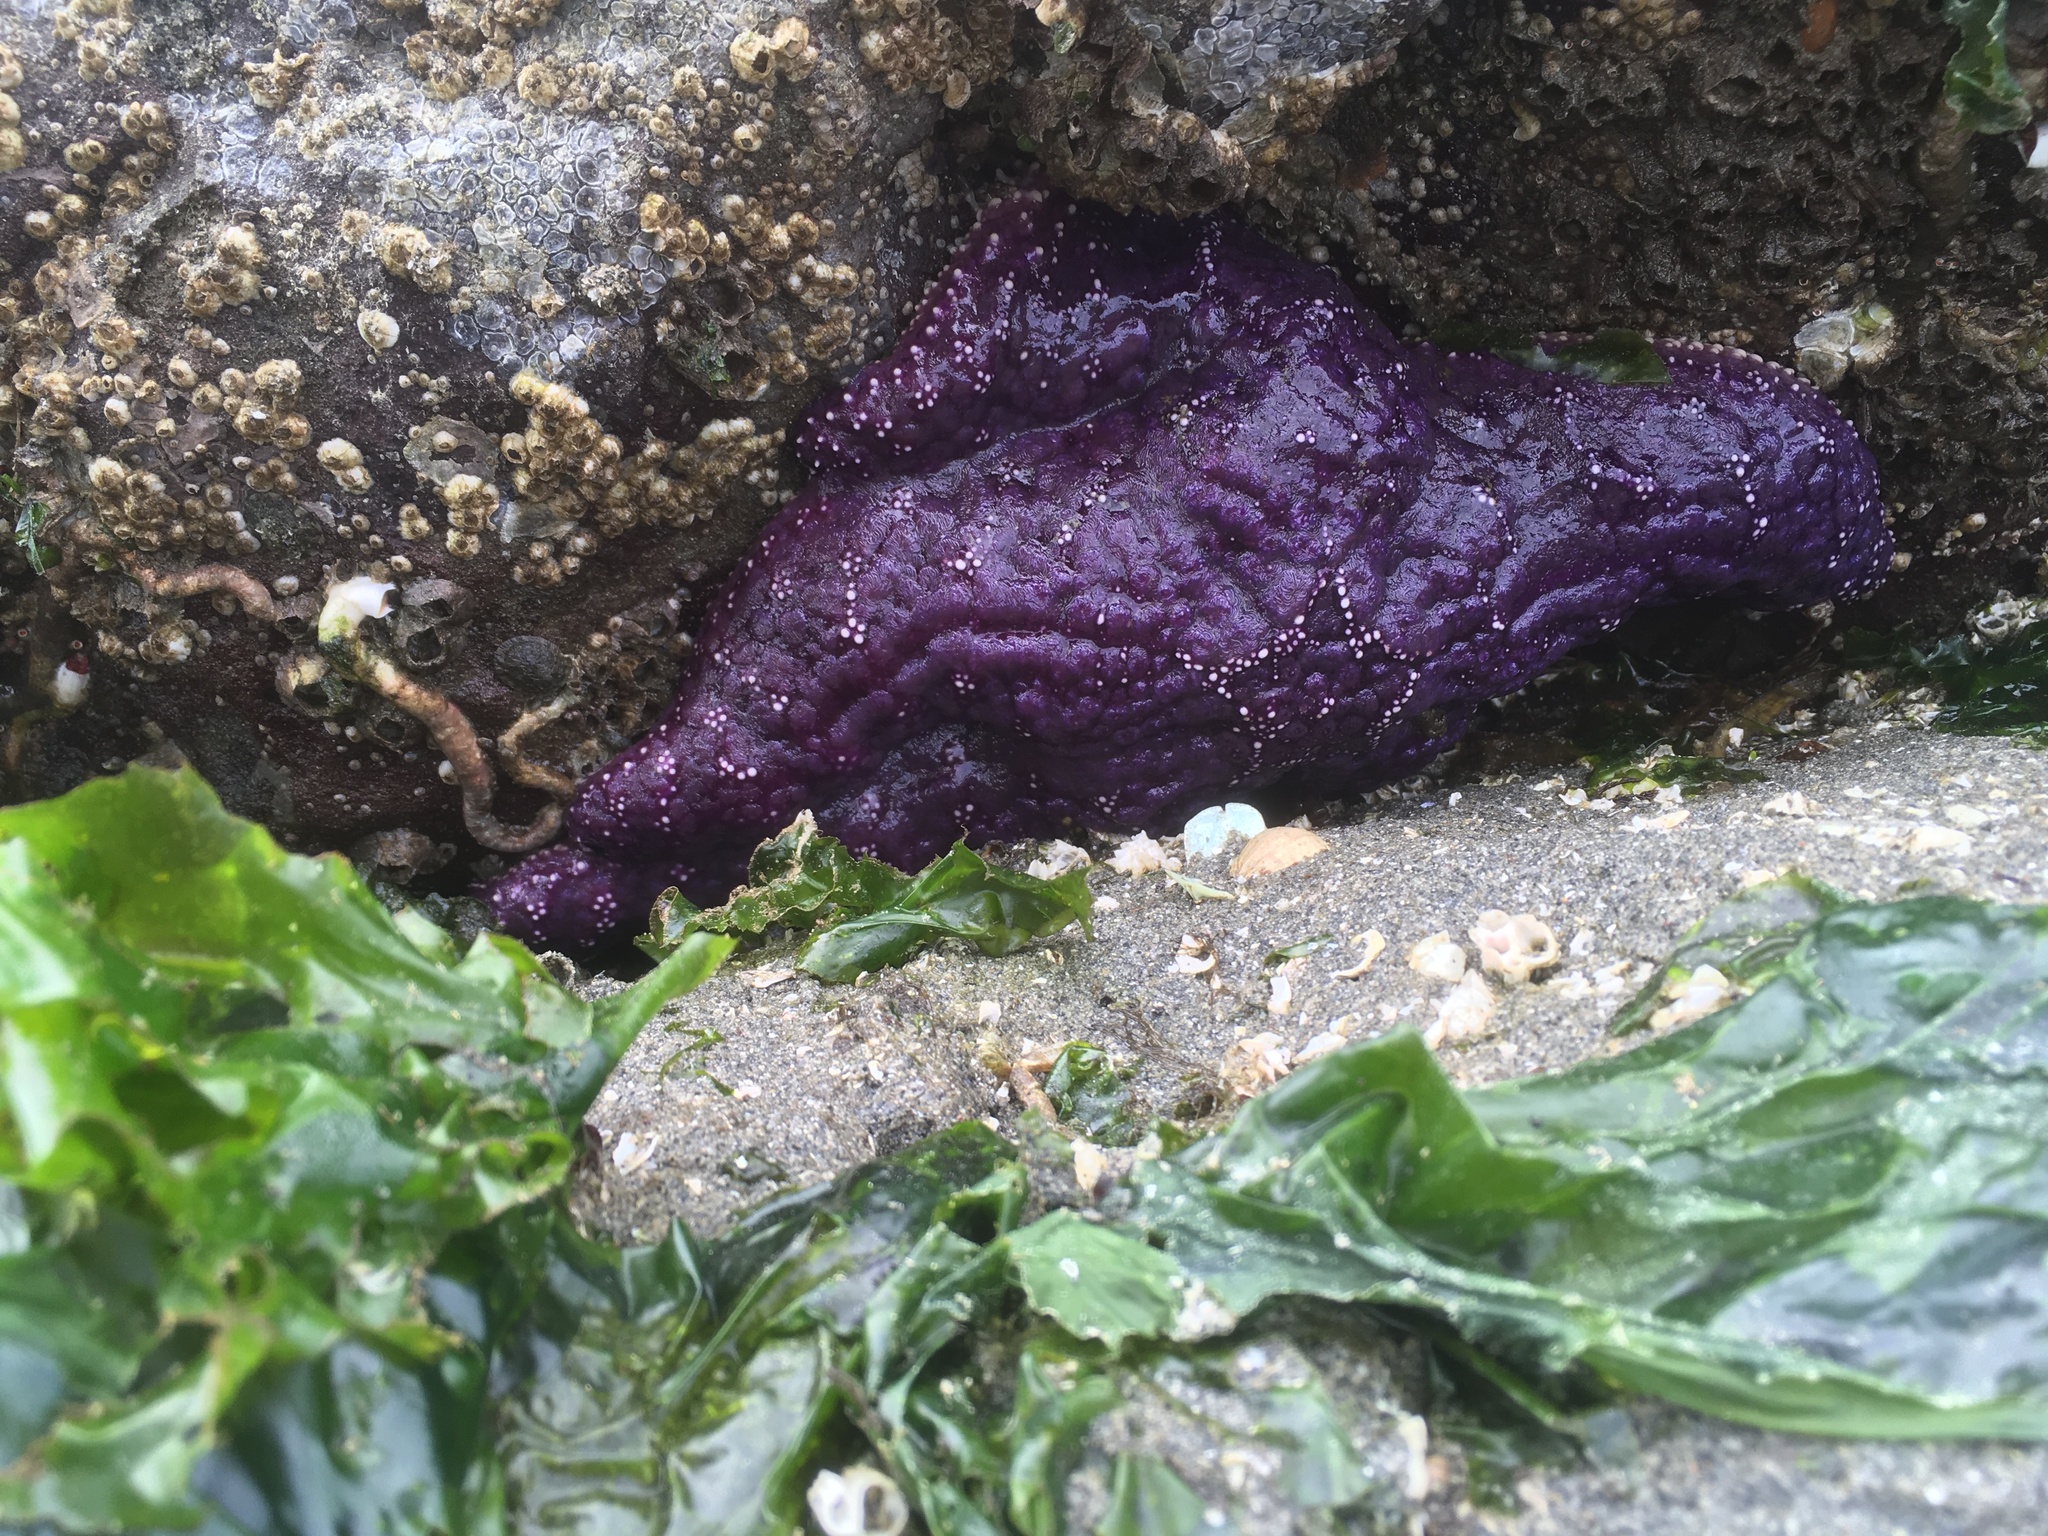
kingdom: Animalia
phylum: Echinodermata
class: Asteroidea
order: Forcipulatida
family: Asteriidae
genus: Pisaster
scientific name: Pisaster ochraceus
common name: Ochre stars
